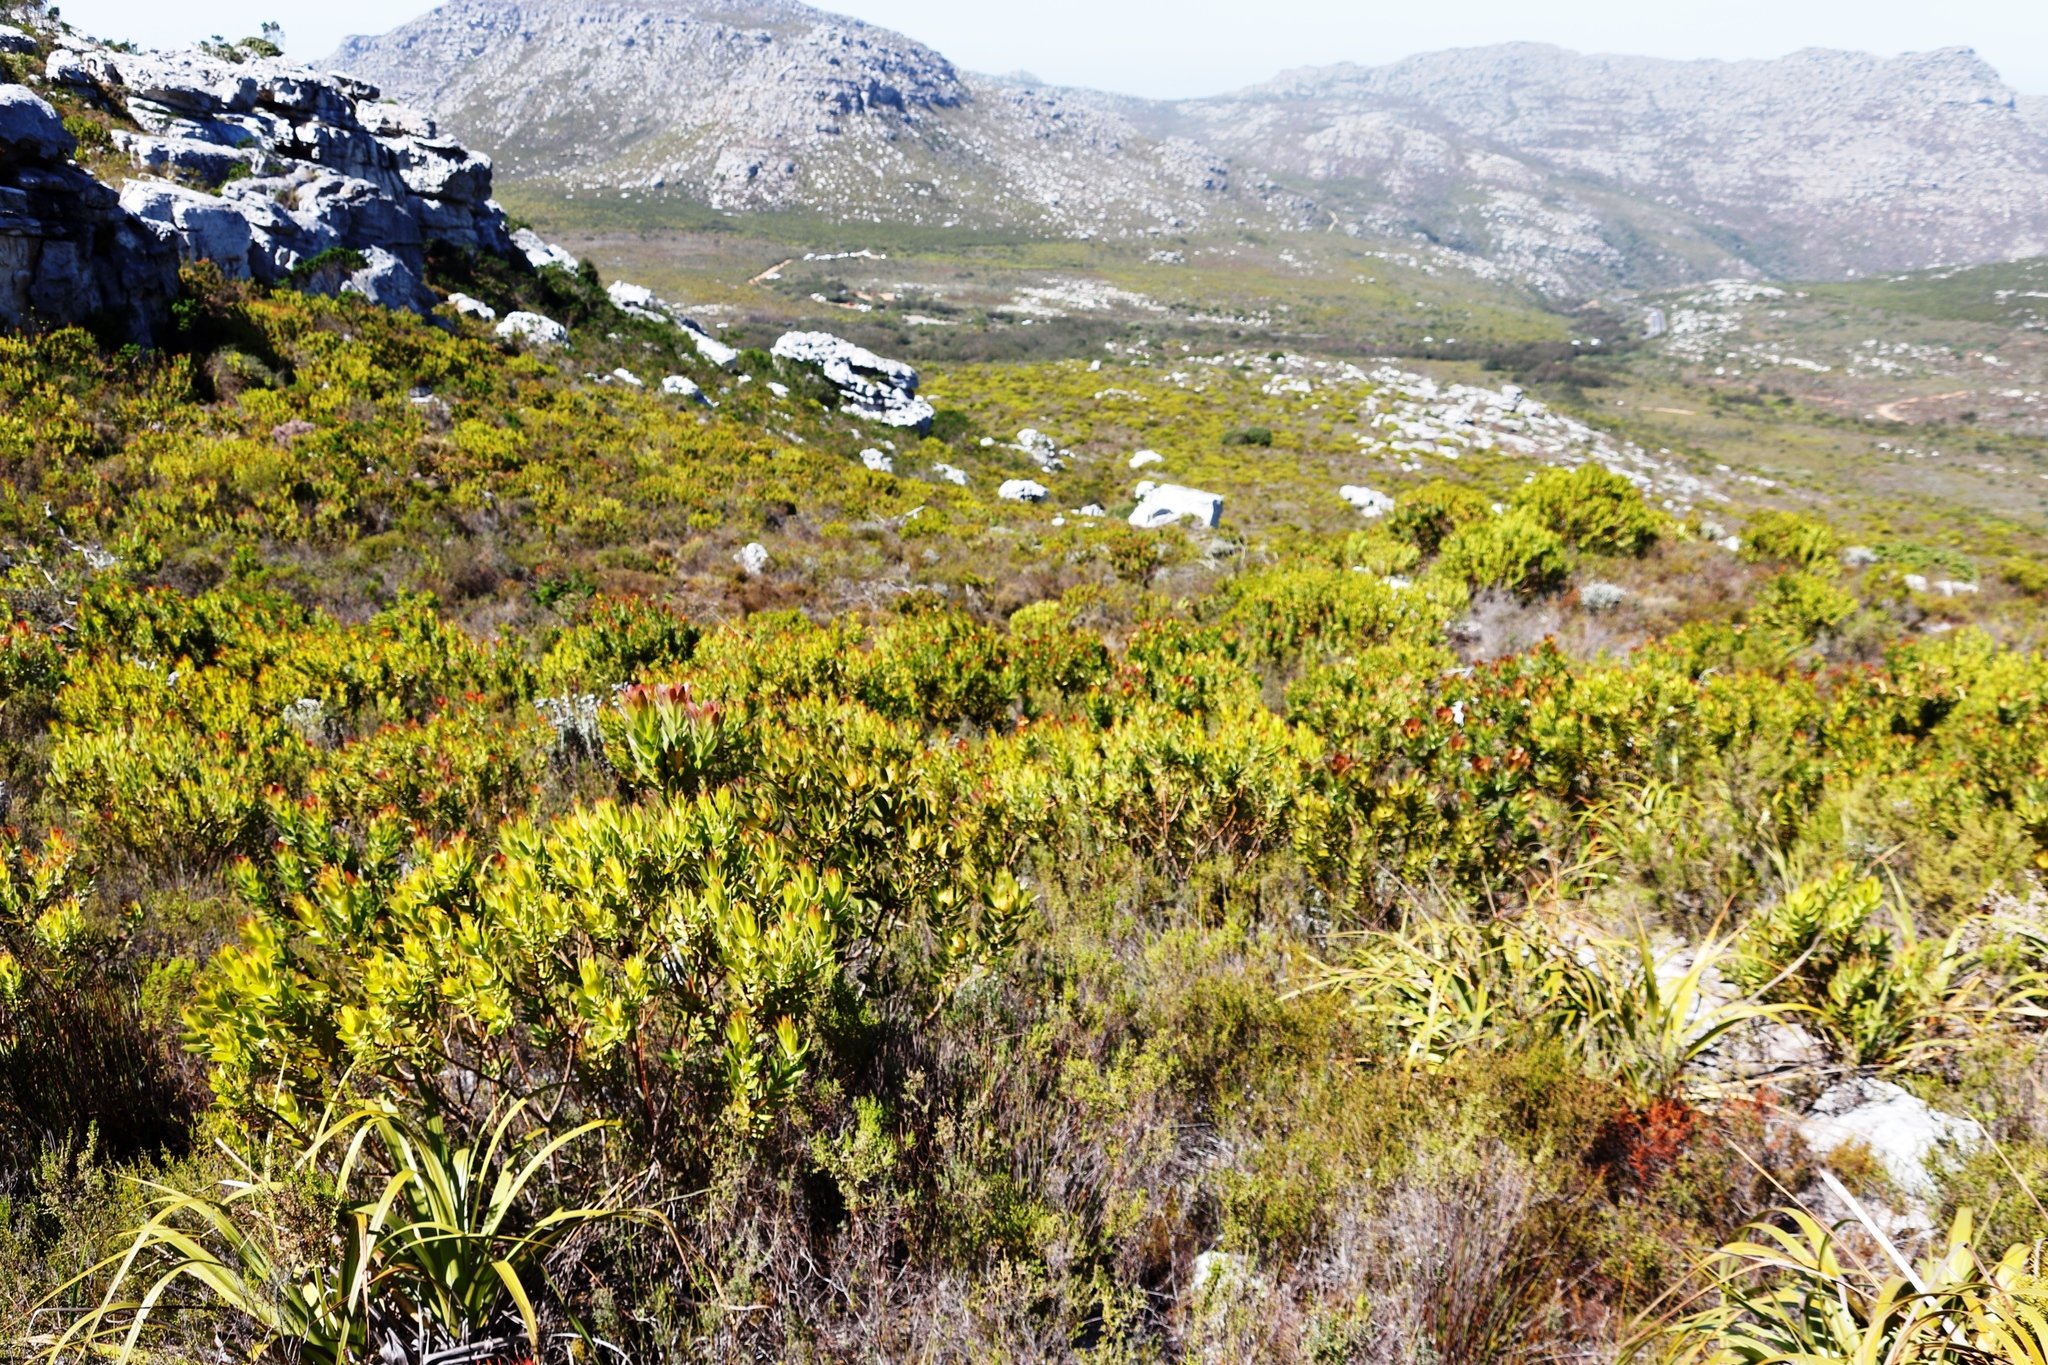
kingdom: Plantae
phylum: Tracheophyta
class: Magnoliopsida
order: Proteales
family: Proteaceae
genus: Leucadendron
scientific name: Leucadendron laureolum
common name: Golden sunshinebush
